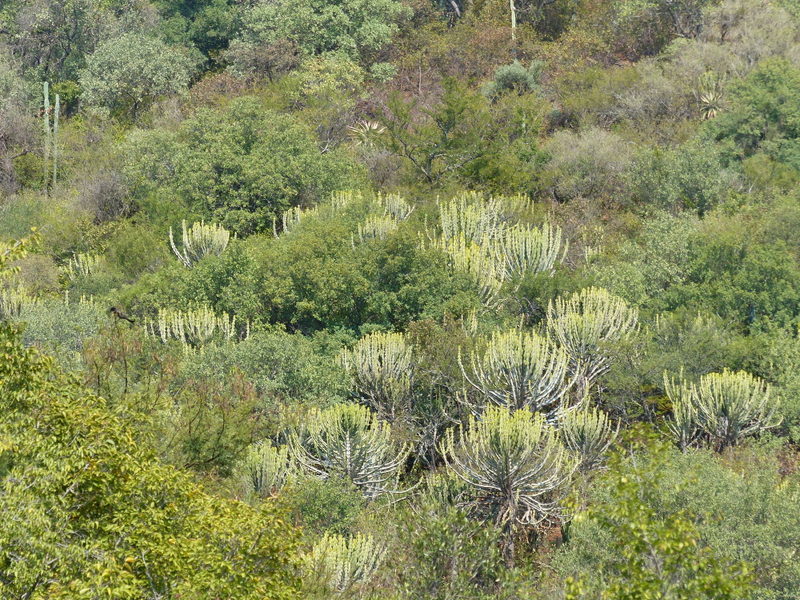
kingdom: Plantae
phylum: Tracheophyta
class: Magnoliopsida
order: Malpighiales
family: Euphorbiaceae
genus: Euphorbia
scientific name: Euphorbia cooperi
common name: Candelabra tree
